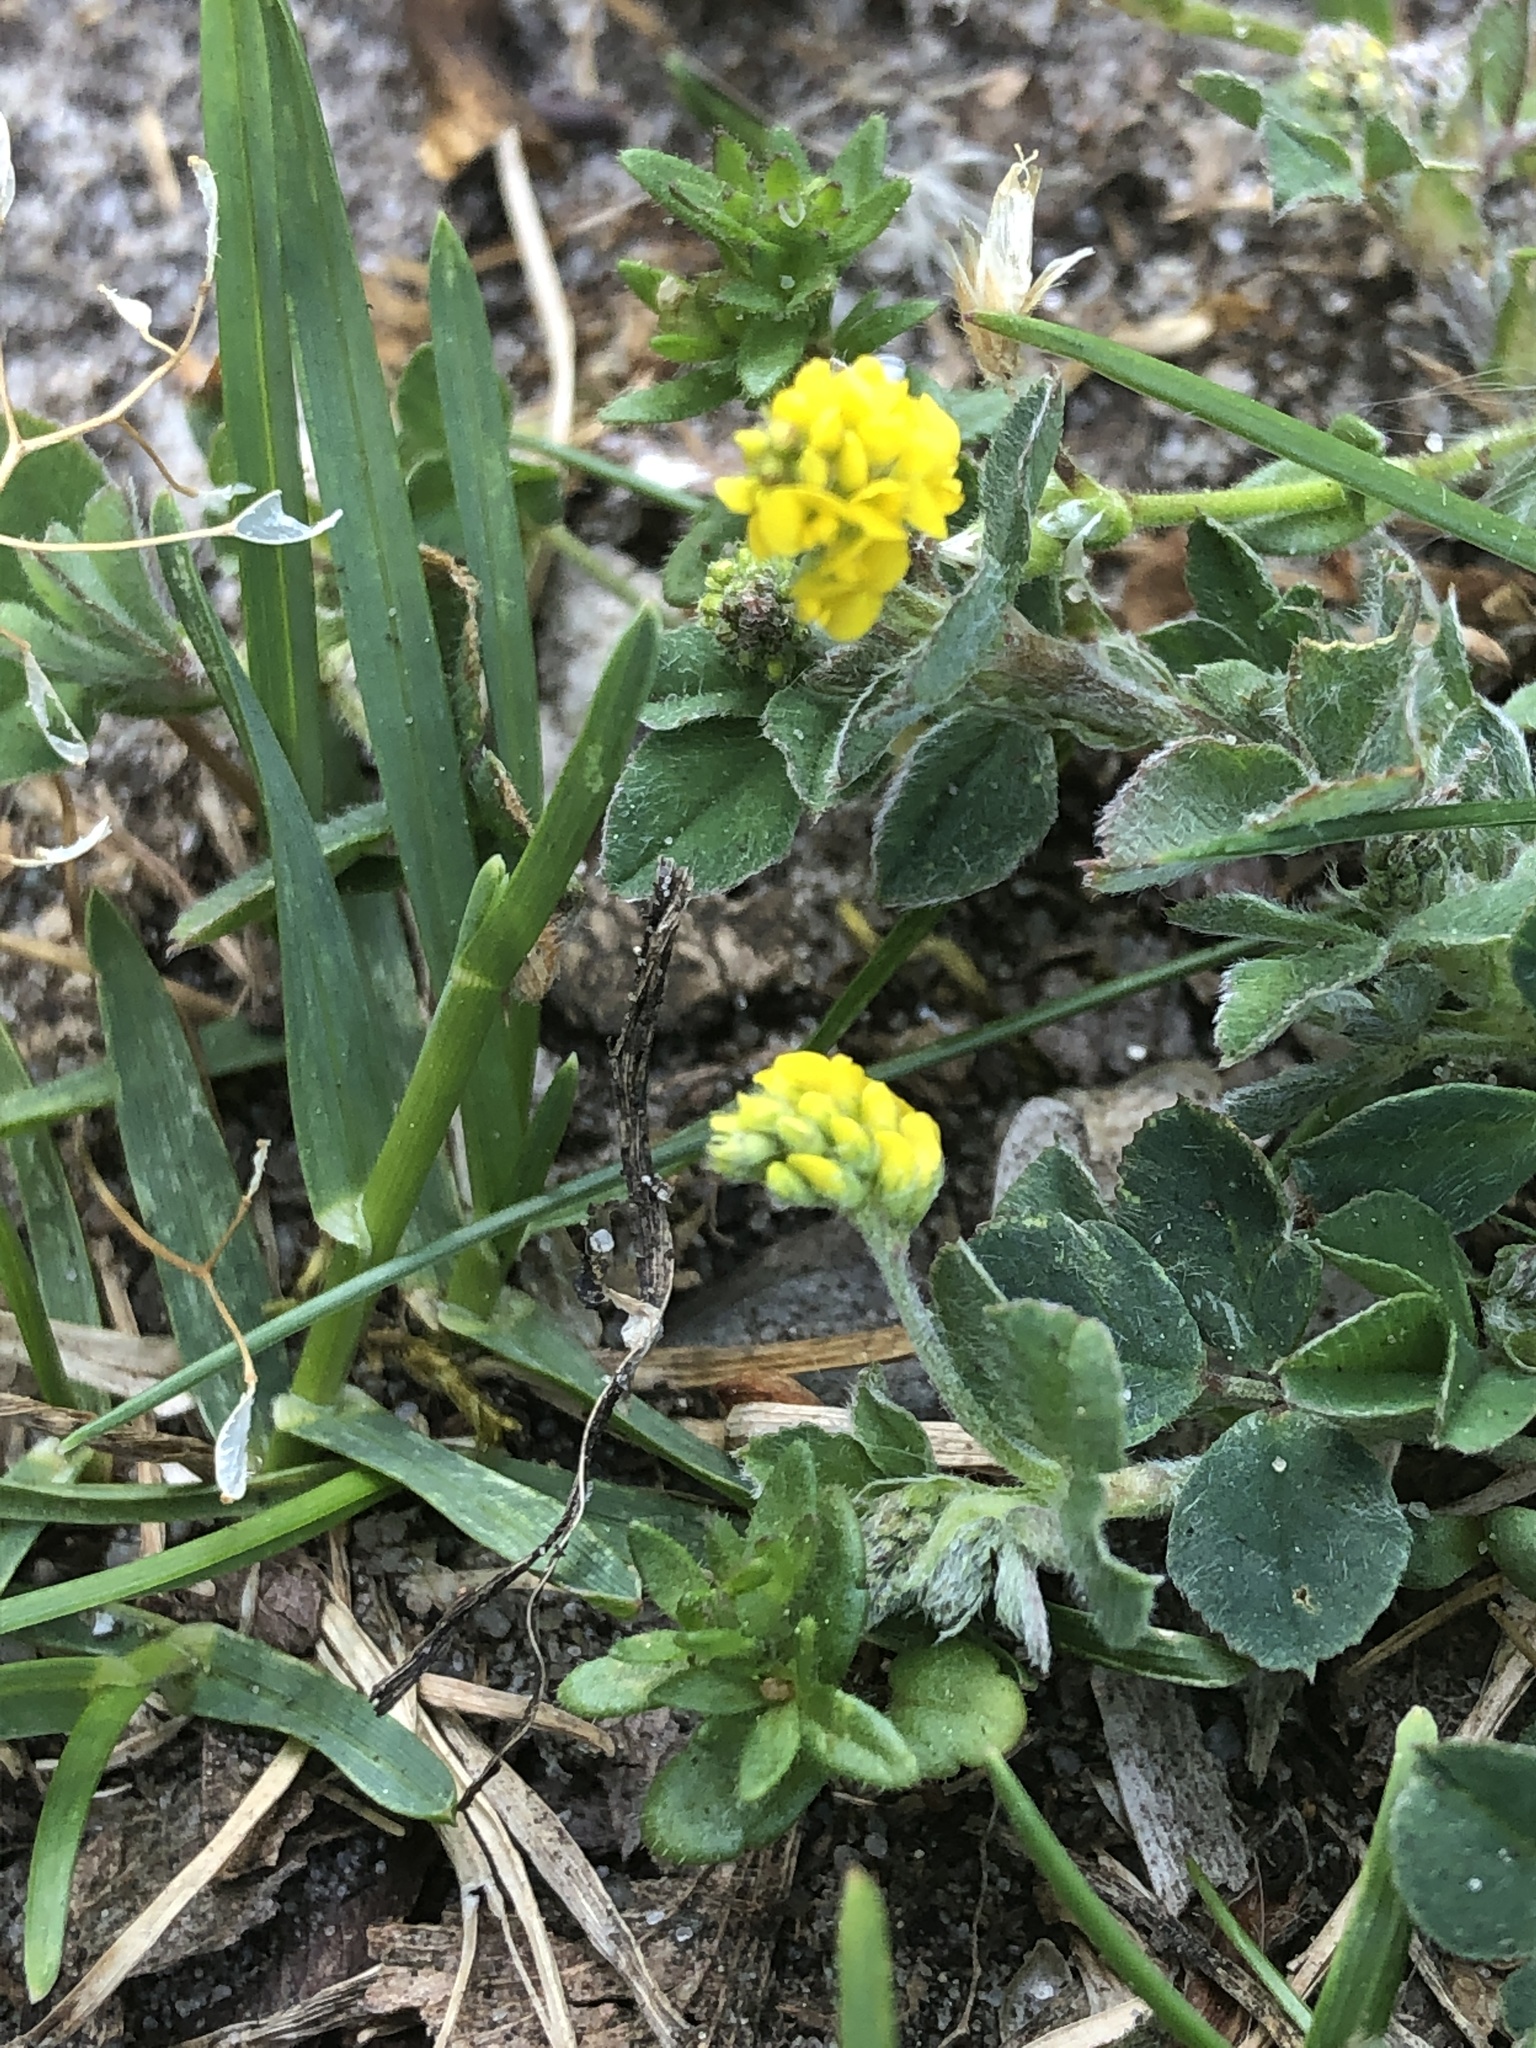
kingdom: Plantae
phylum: Tracheophyta
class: Magnoliopsida
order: Fabales
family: Fabaceae
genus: Medicago
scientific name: Medicago lupulina
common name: Black medick
